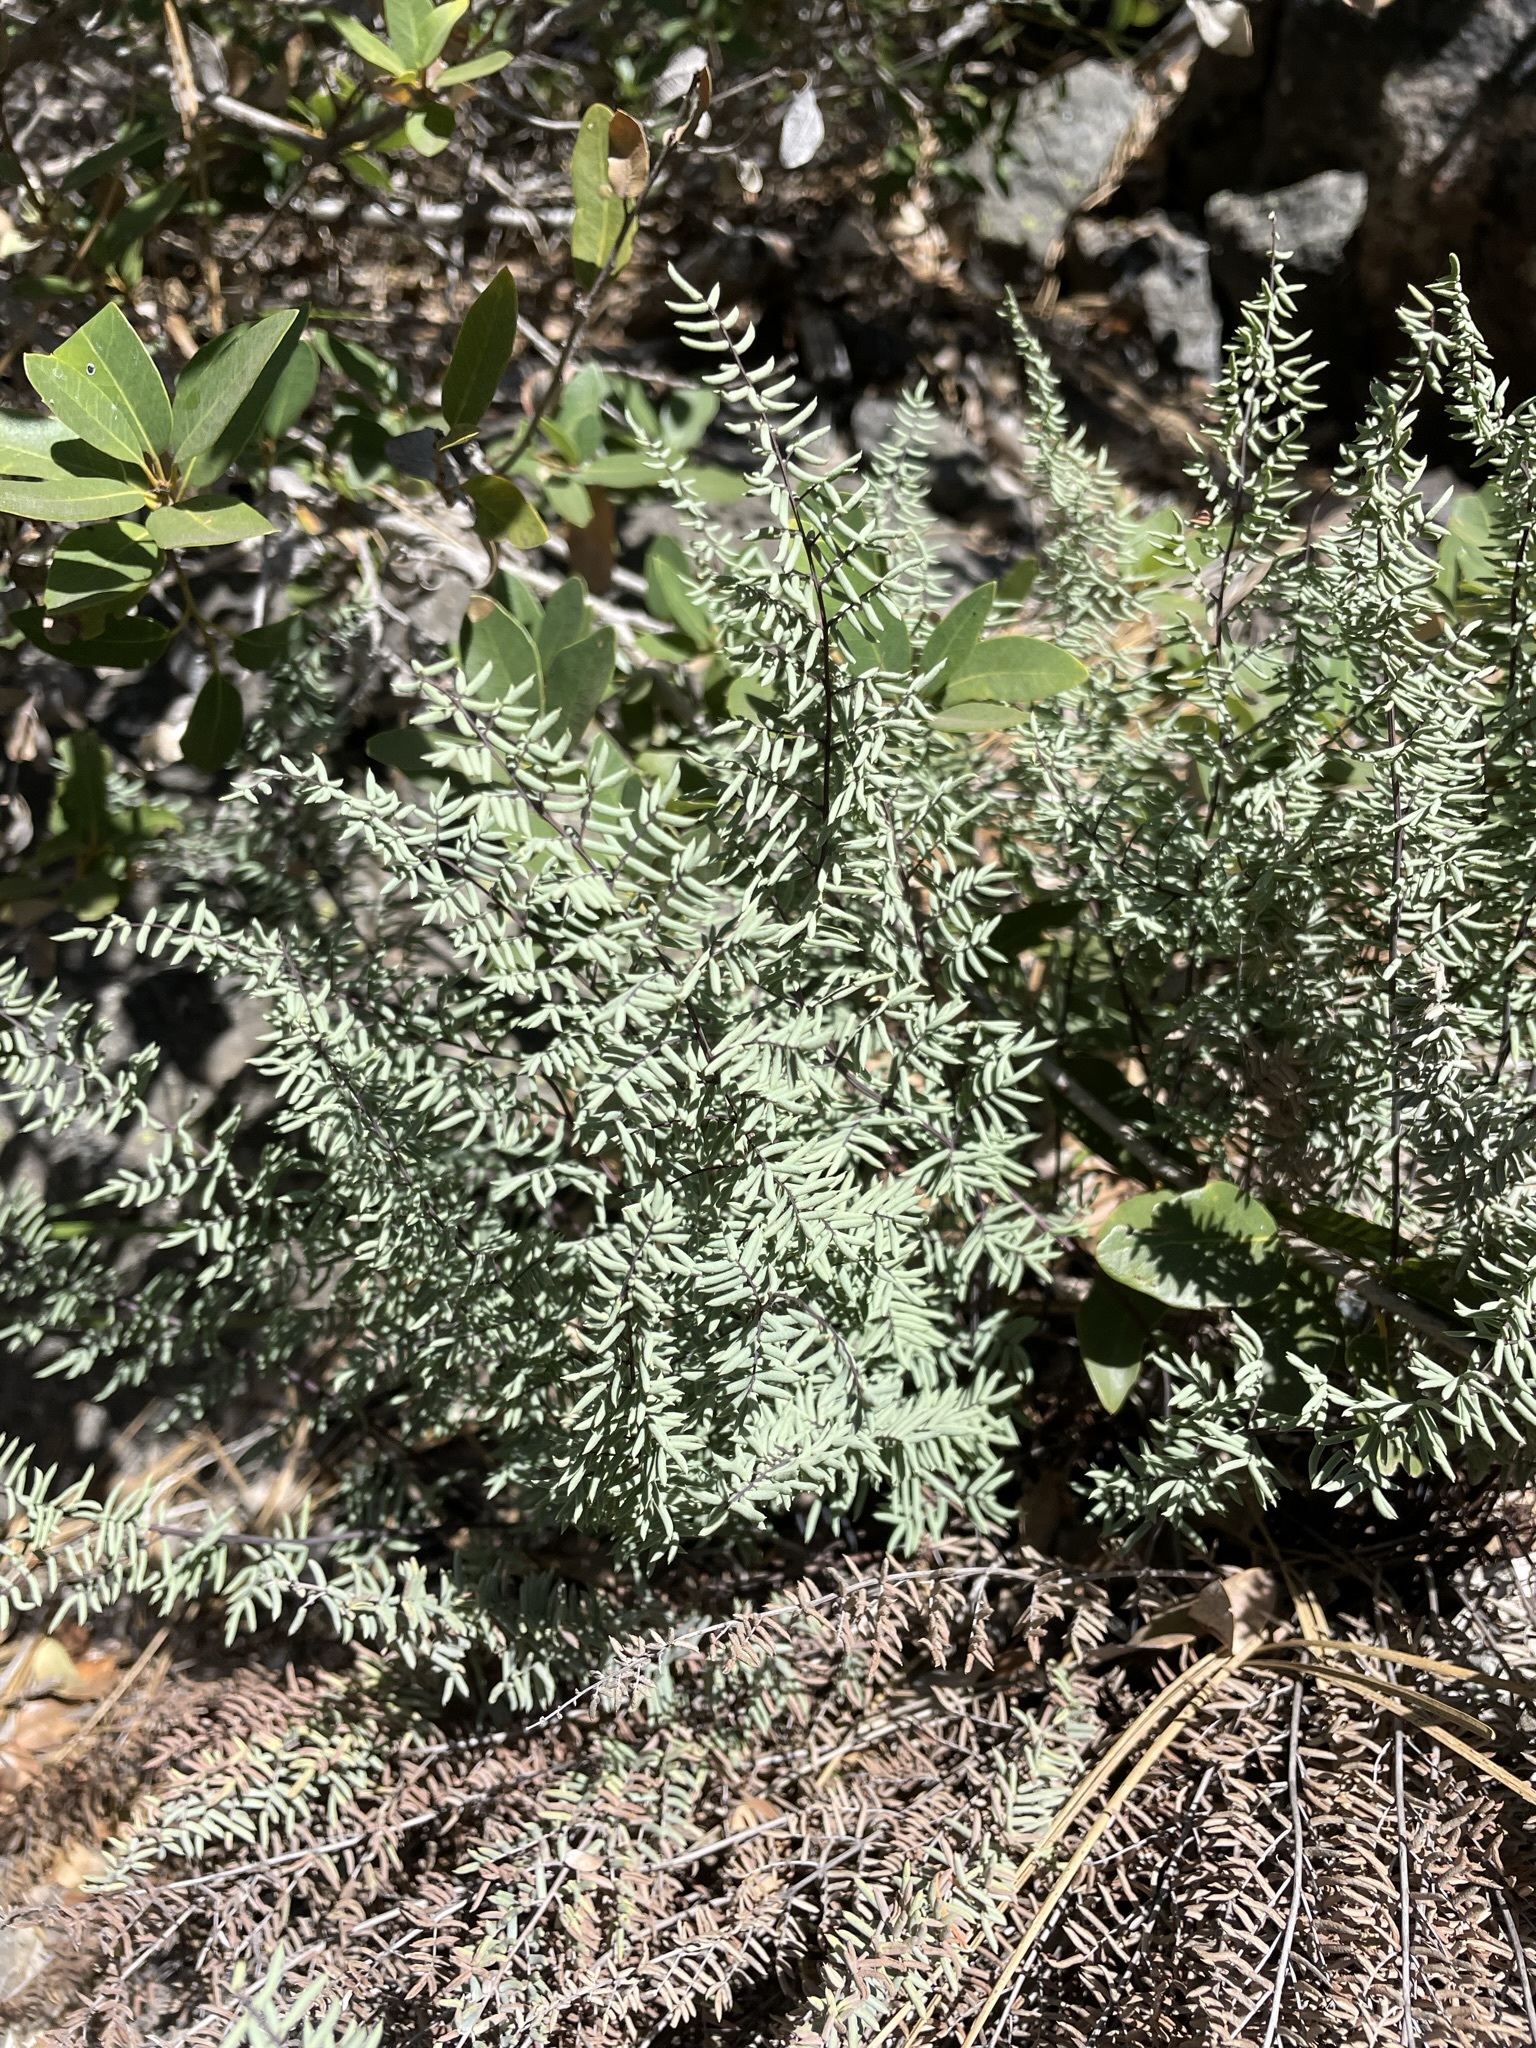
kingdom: Plantae
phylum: Tracheophyta
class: Polypodiopsida
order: Polypodiales
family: Pteridaceae
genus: Pellaea
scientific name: Pellaea mucronata
